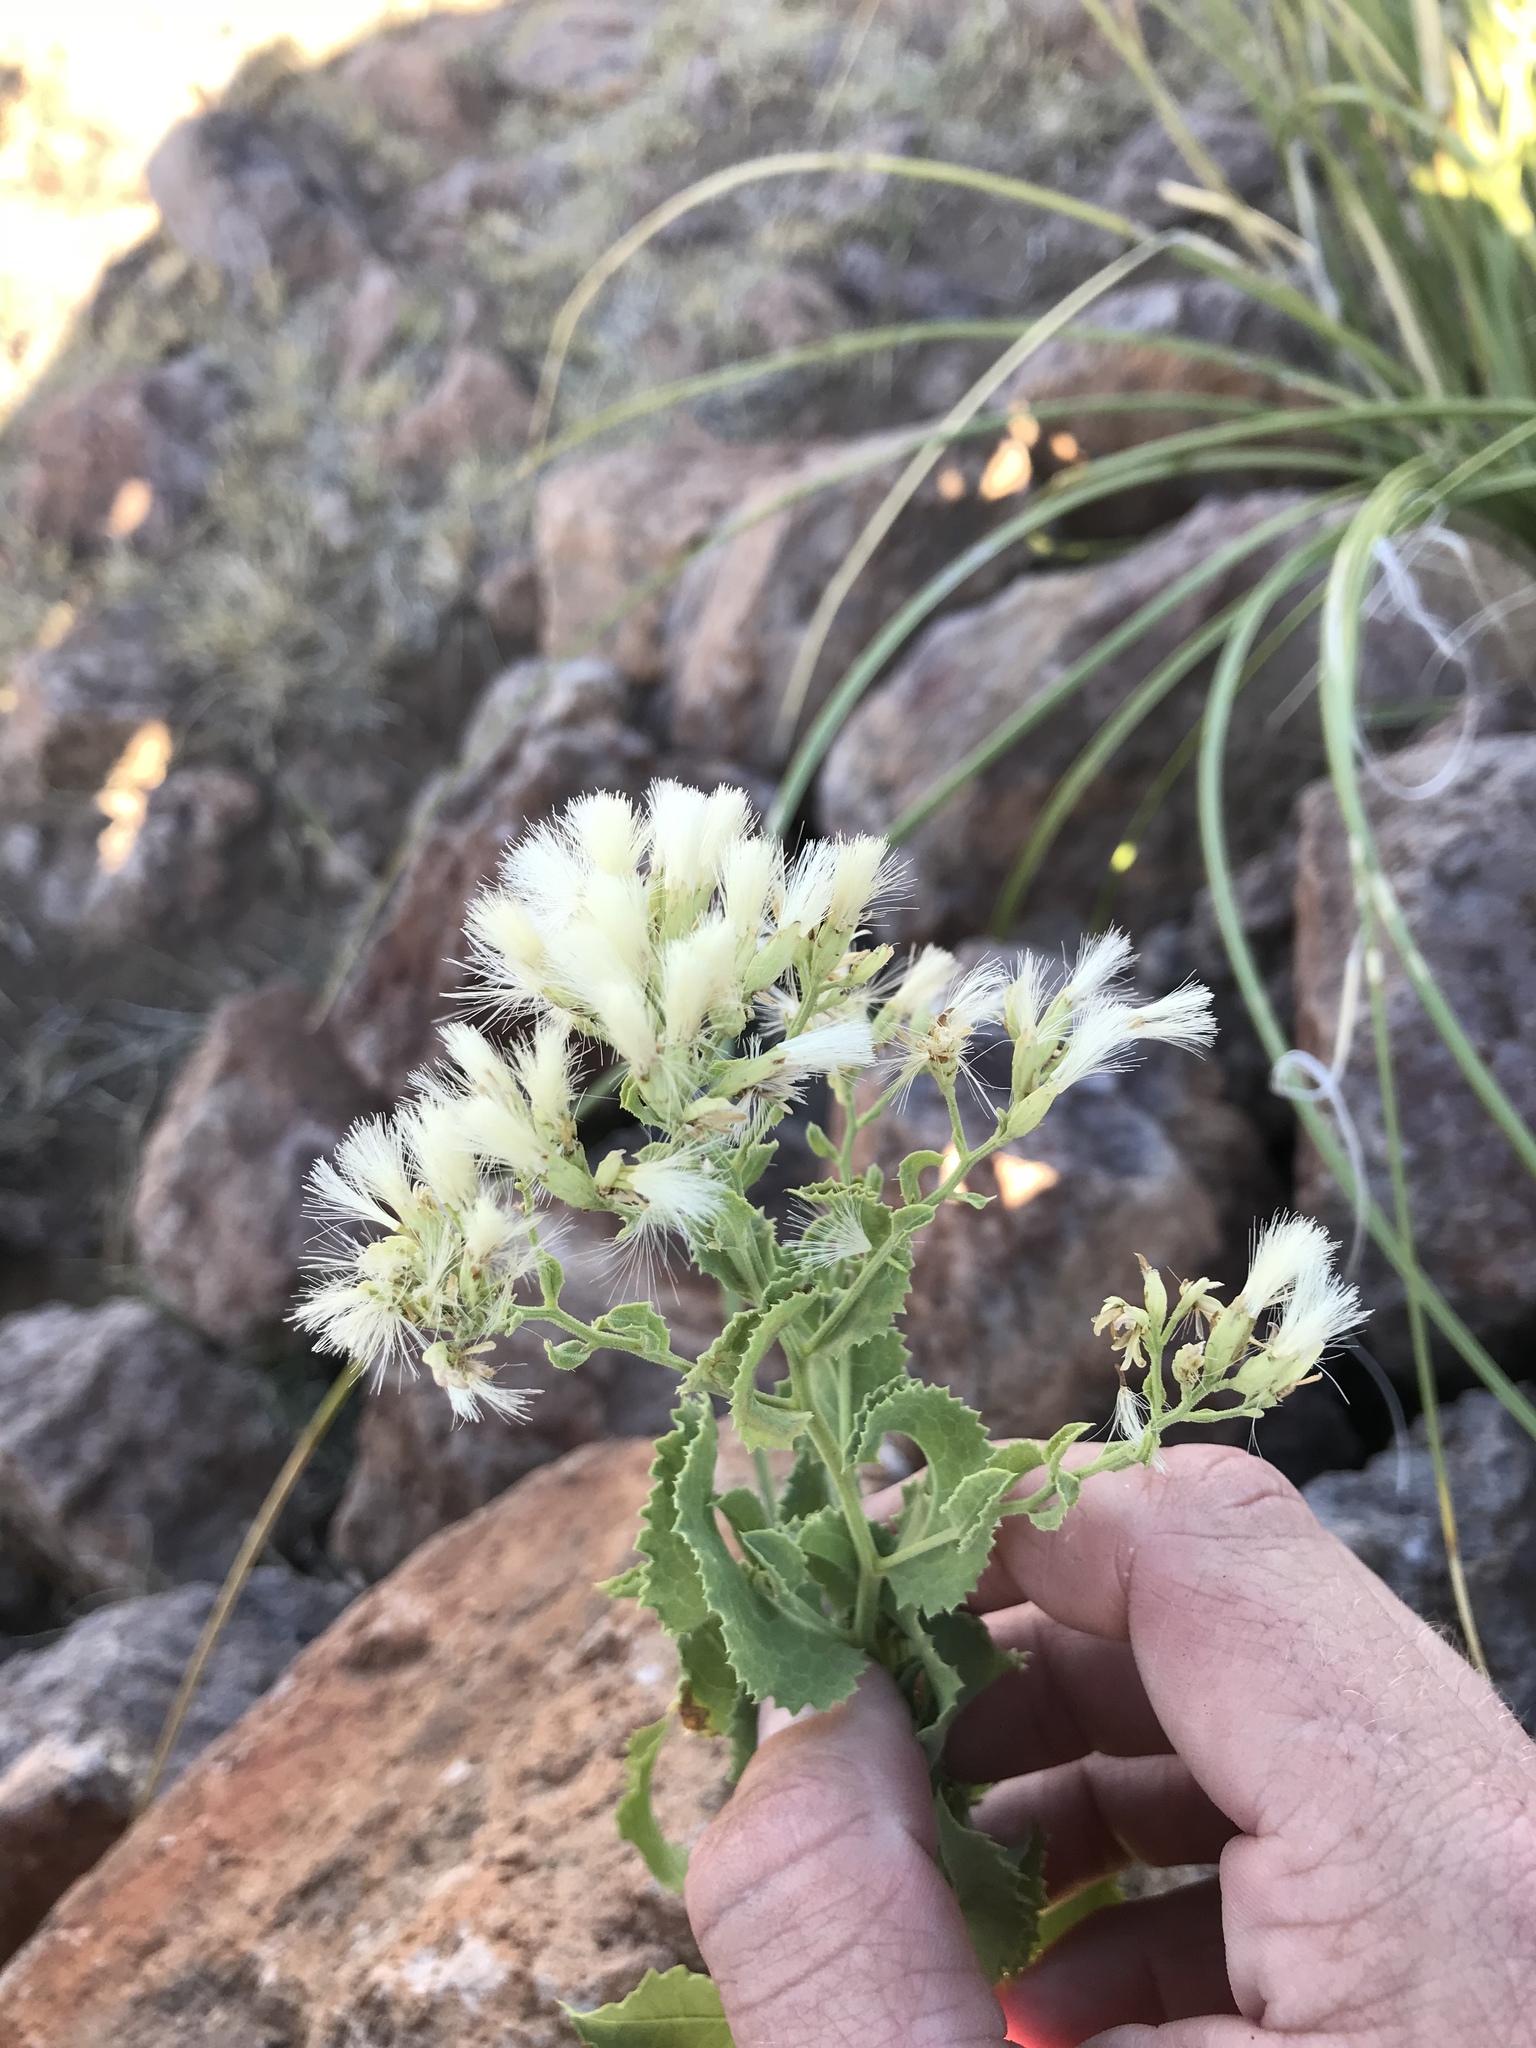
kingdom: Plantae
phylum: Tracheophyta
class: Magnoliopsida
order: Asterales
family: Asteraceae
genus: Acourtia
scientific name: Acourtia wrightii
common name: Brownfoot
